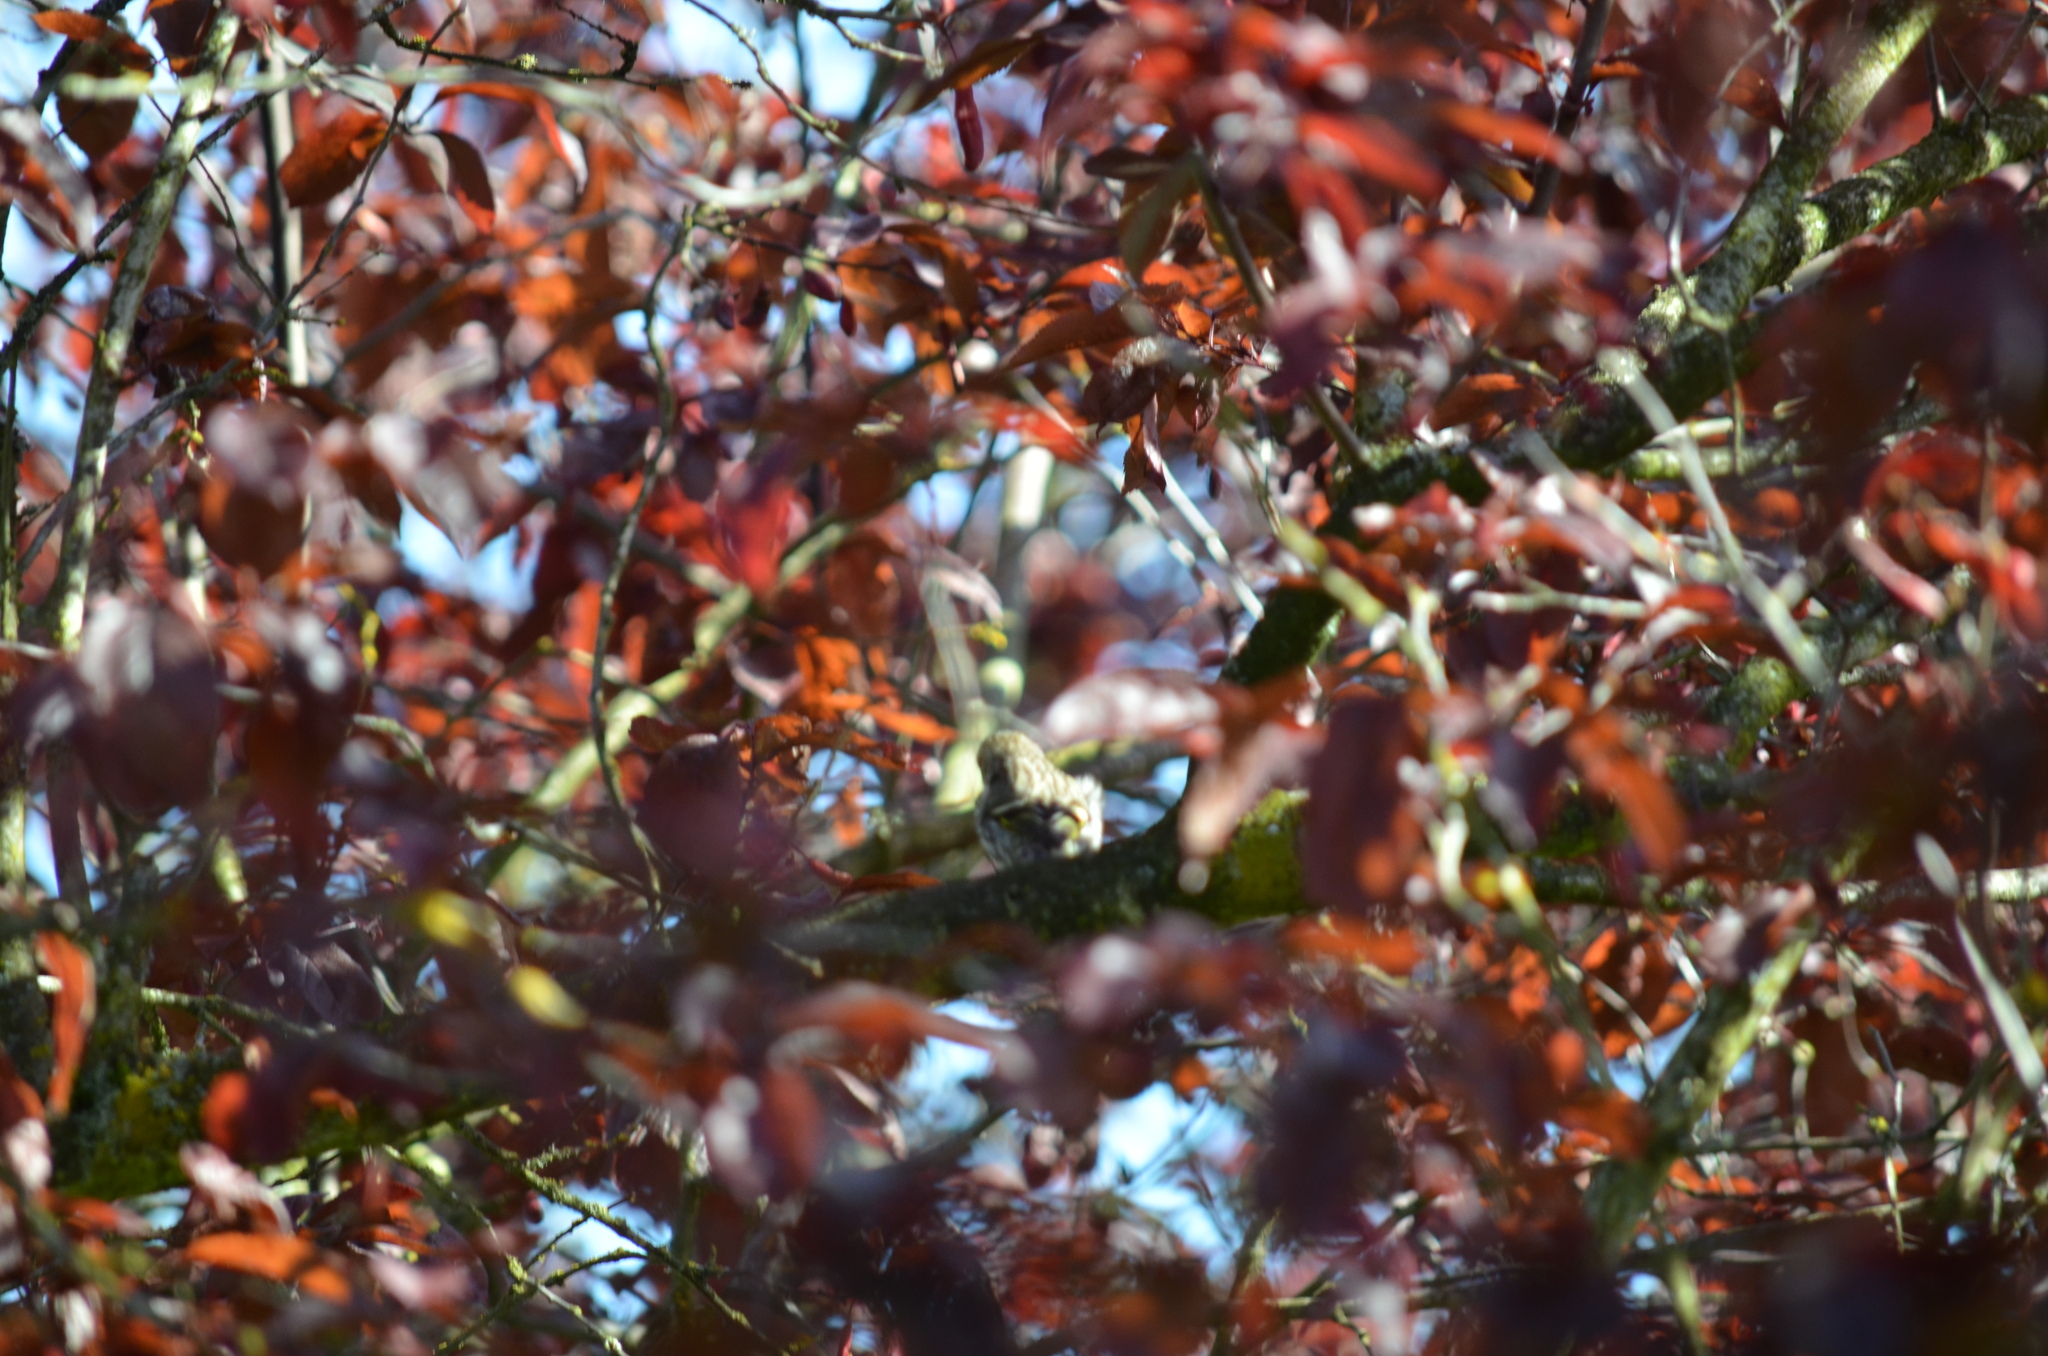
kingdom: Animalia
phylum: Chordata
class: Aves
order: Passeriformes
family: Fringillidae
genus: Spinus
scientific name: Spinus pinus
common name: Pine siskin
